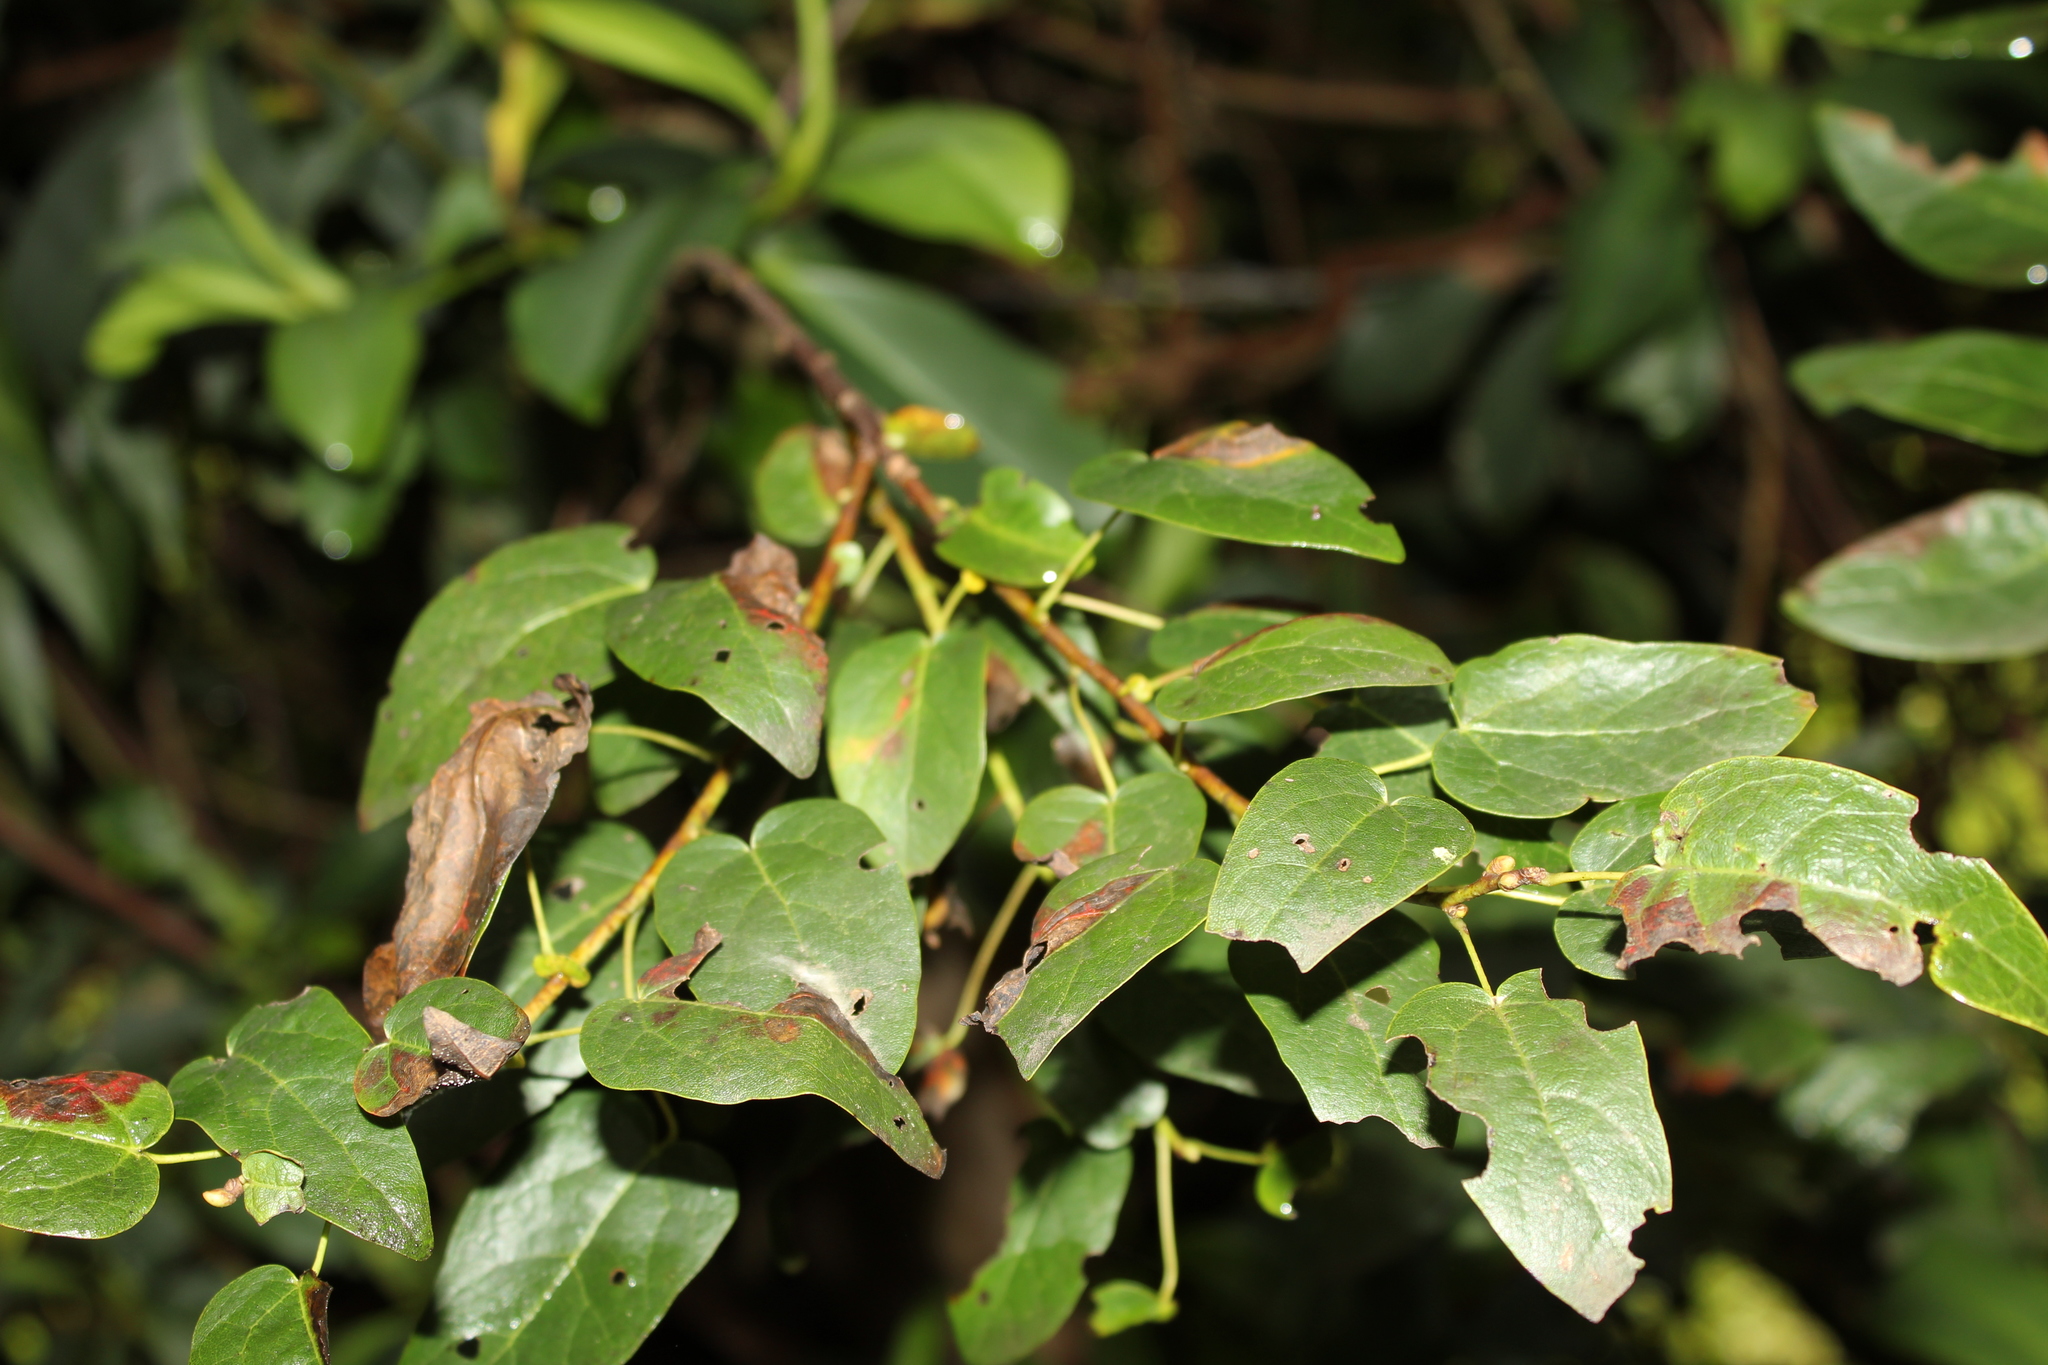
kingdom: Plantae
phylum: Tracheophyta
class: Magnoliopsida
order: Oxalidales
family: Elaeocarpaceae
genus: Vallea
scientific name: Vallea stipularis
